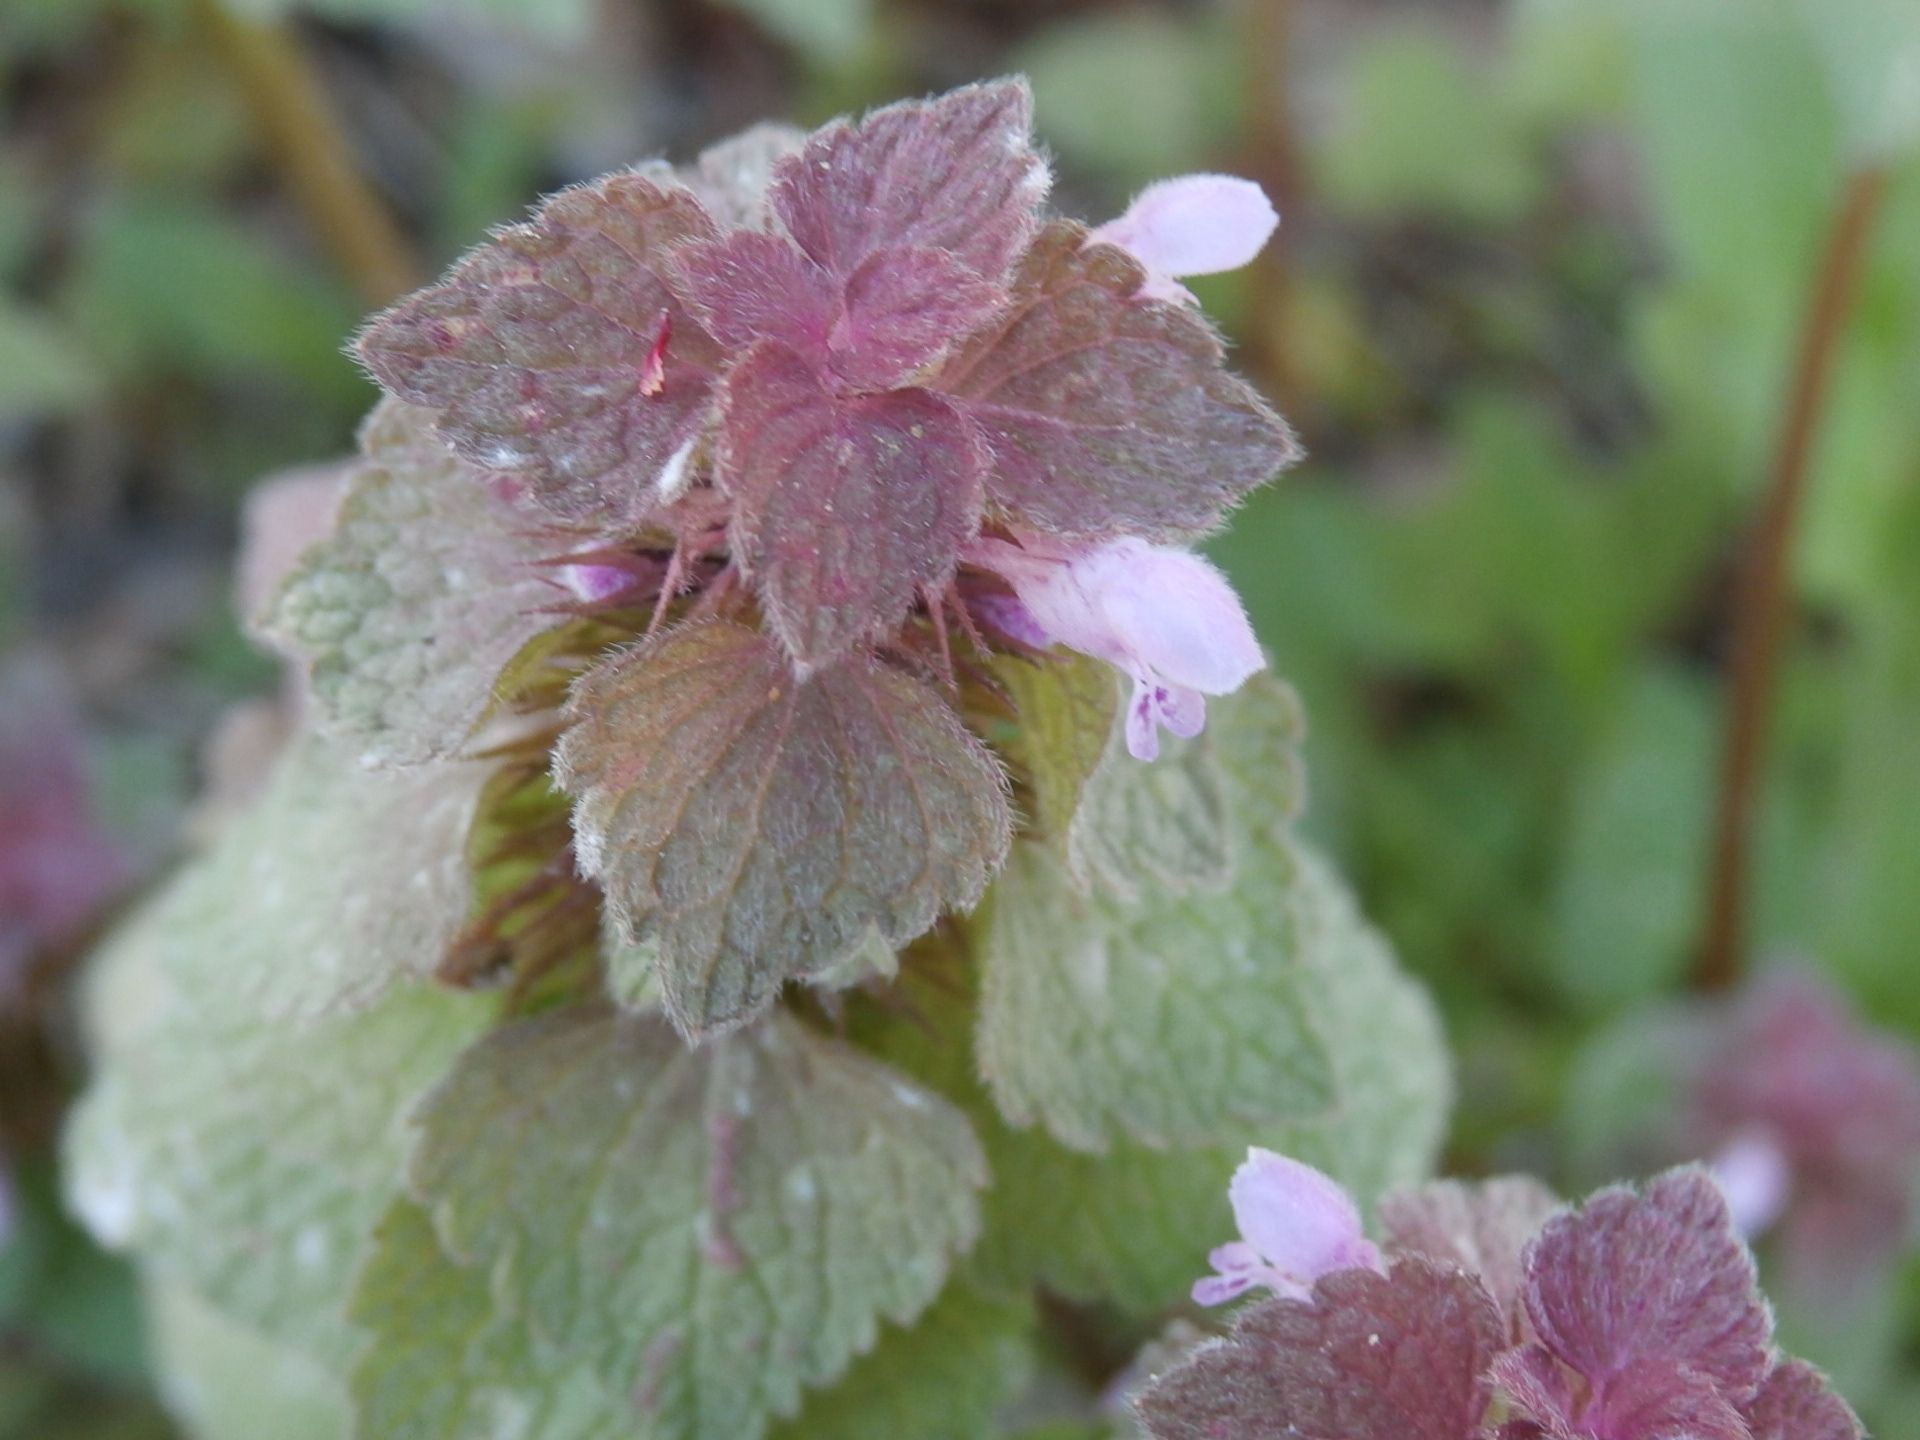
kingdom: Plantae
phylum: Tracheophyta
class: Magnoliopsida
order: Lamiales
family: Lamiaceae
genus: Lamium
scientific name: Lamium purpureum
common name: Red dead-nettle
